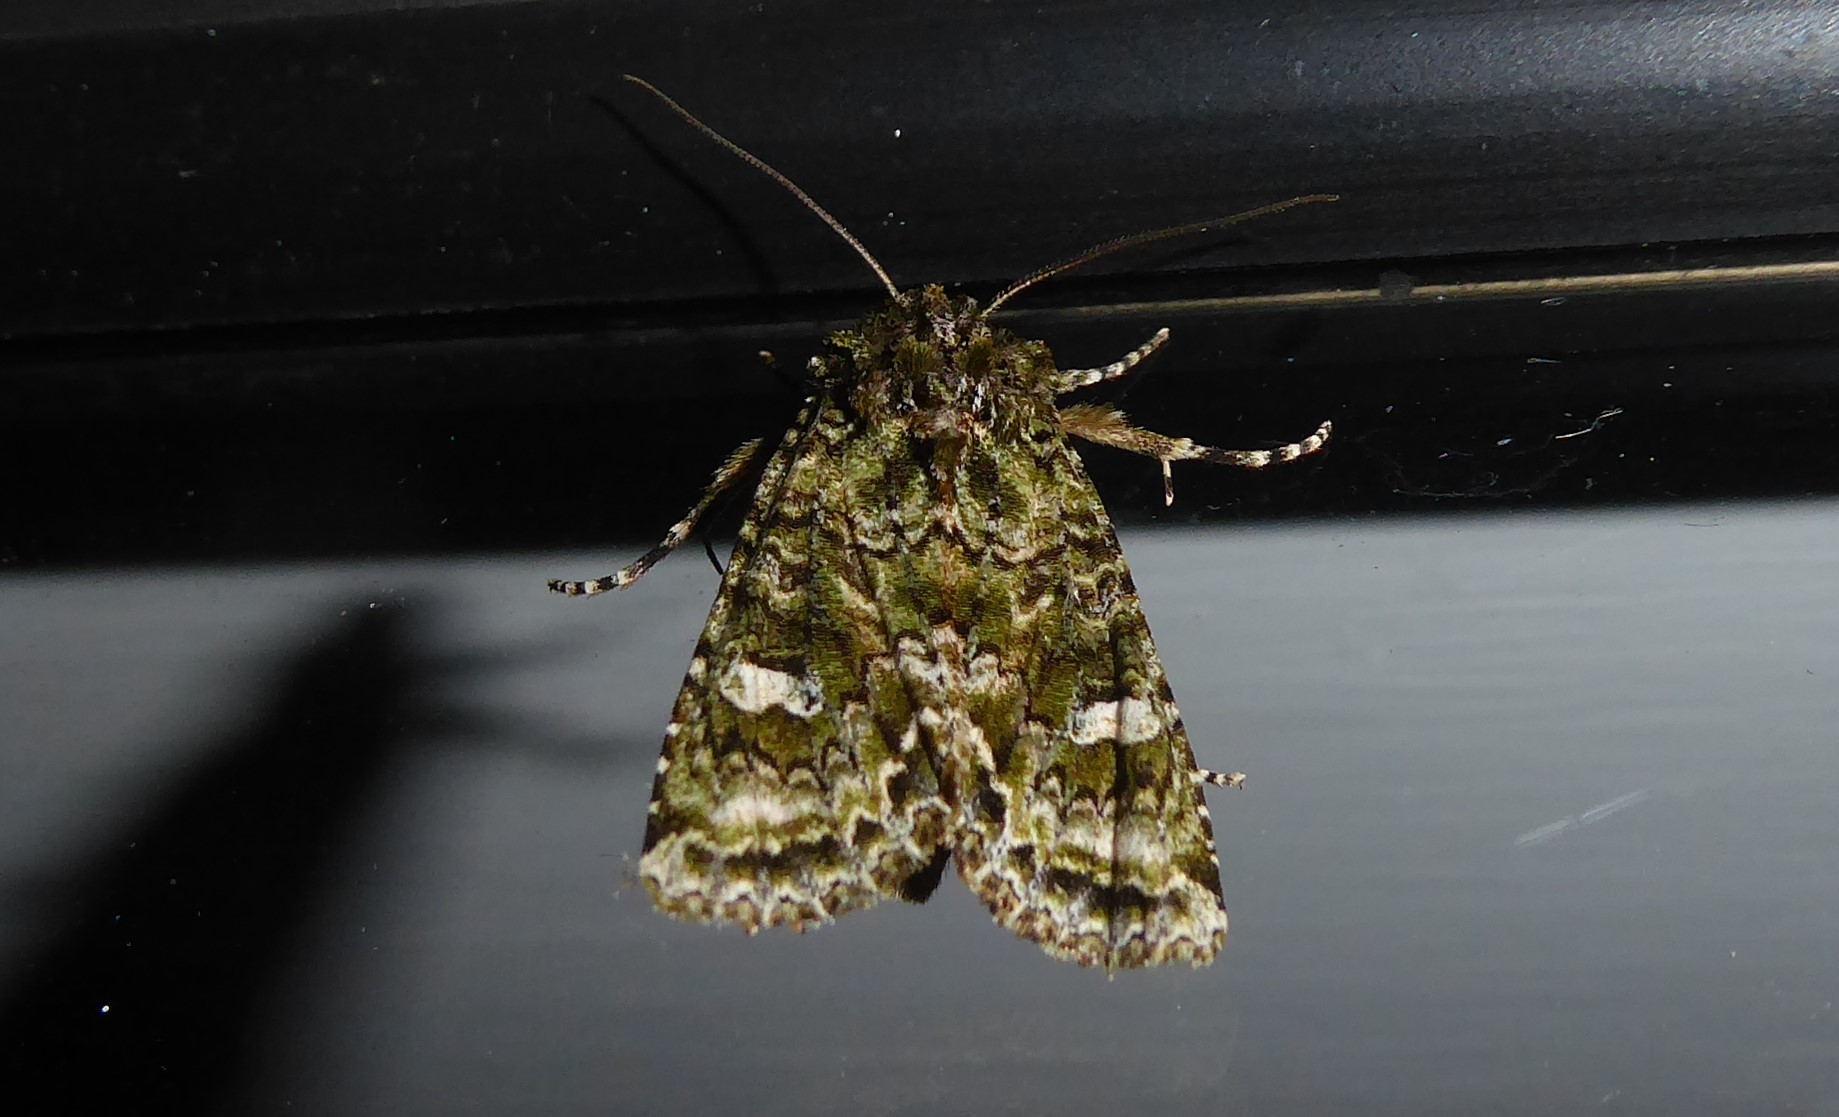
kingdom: Animalia
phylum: Arthropoda
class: Insecta
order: Lepidoptera
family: Noctuidae
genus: Ichneutica
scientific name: Ichneutica
